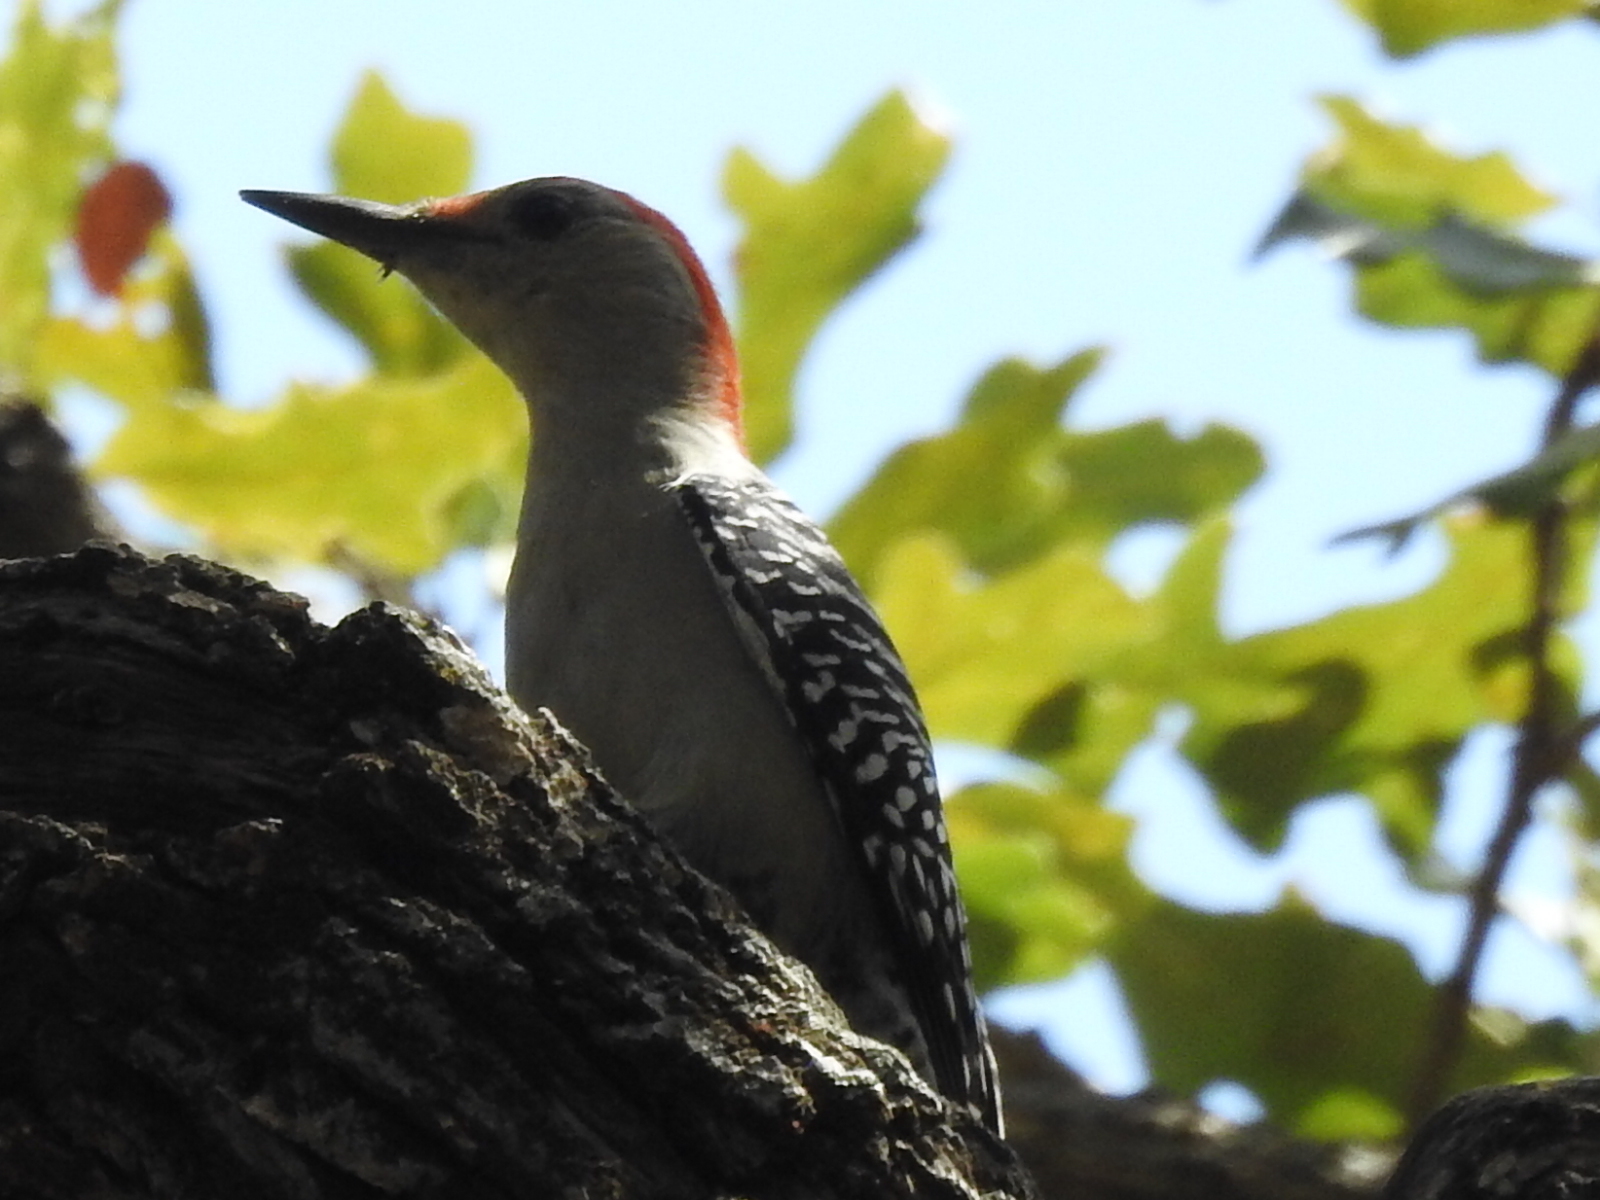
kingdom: Animalia
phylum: Chordata
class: Aves
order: Piciformes
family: Picidae
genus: Melanerpes
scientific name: Melanerpes carolinus
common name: Red-bellied woodpecker
